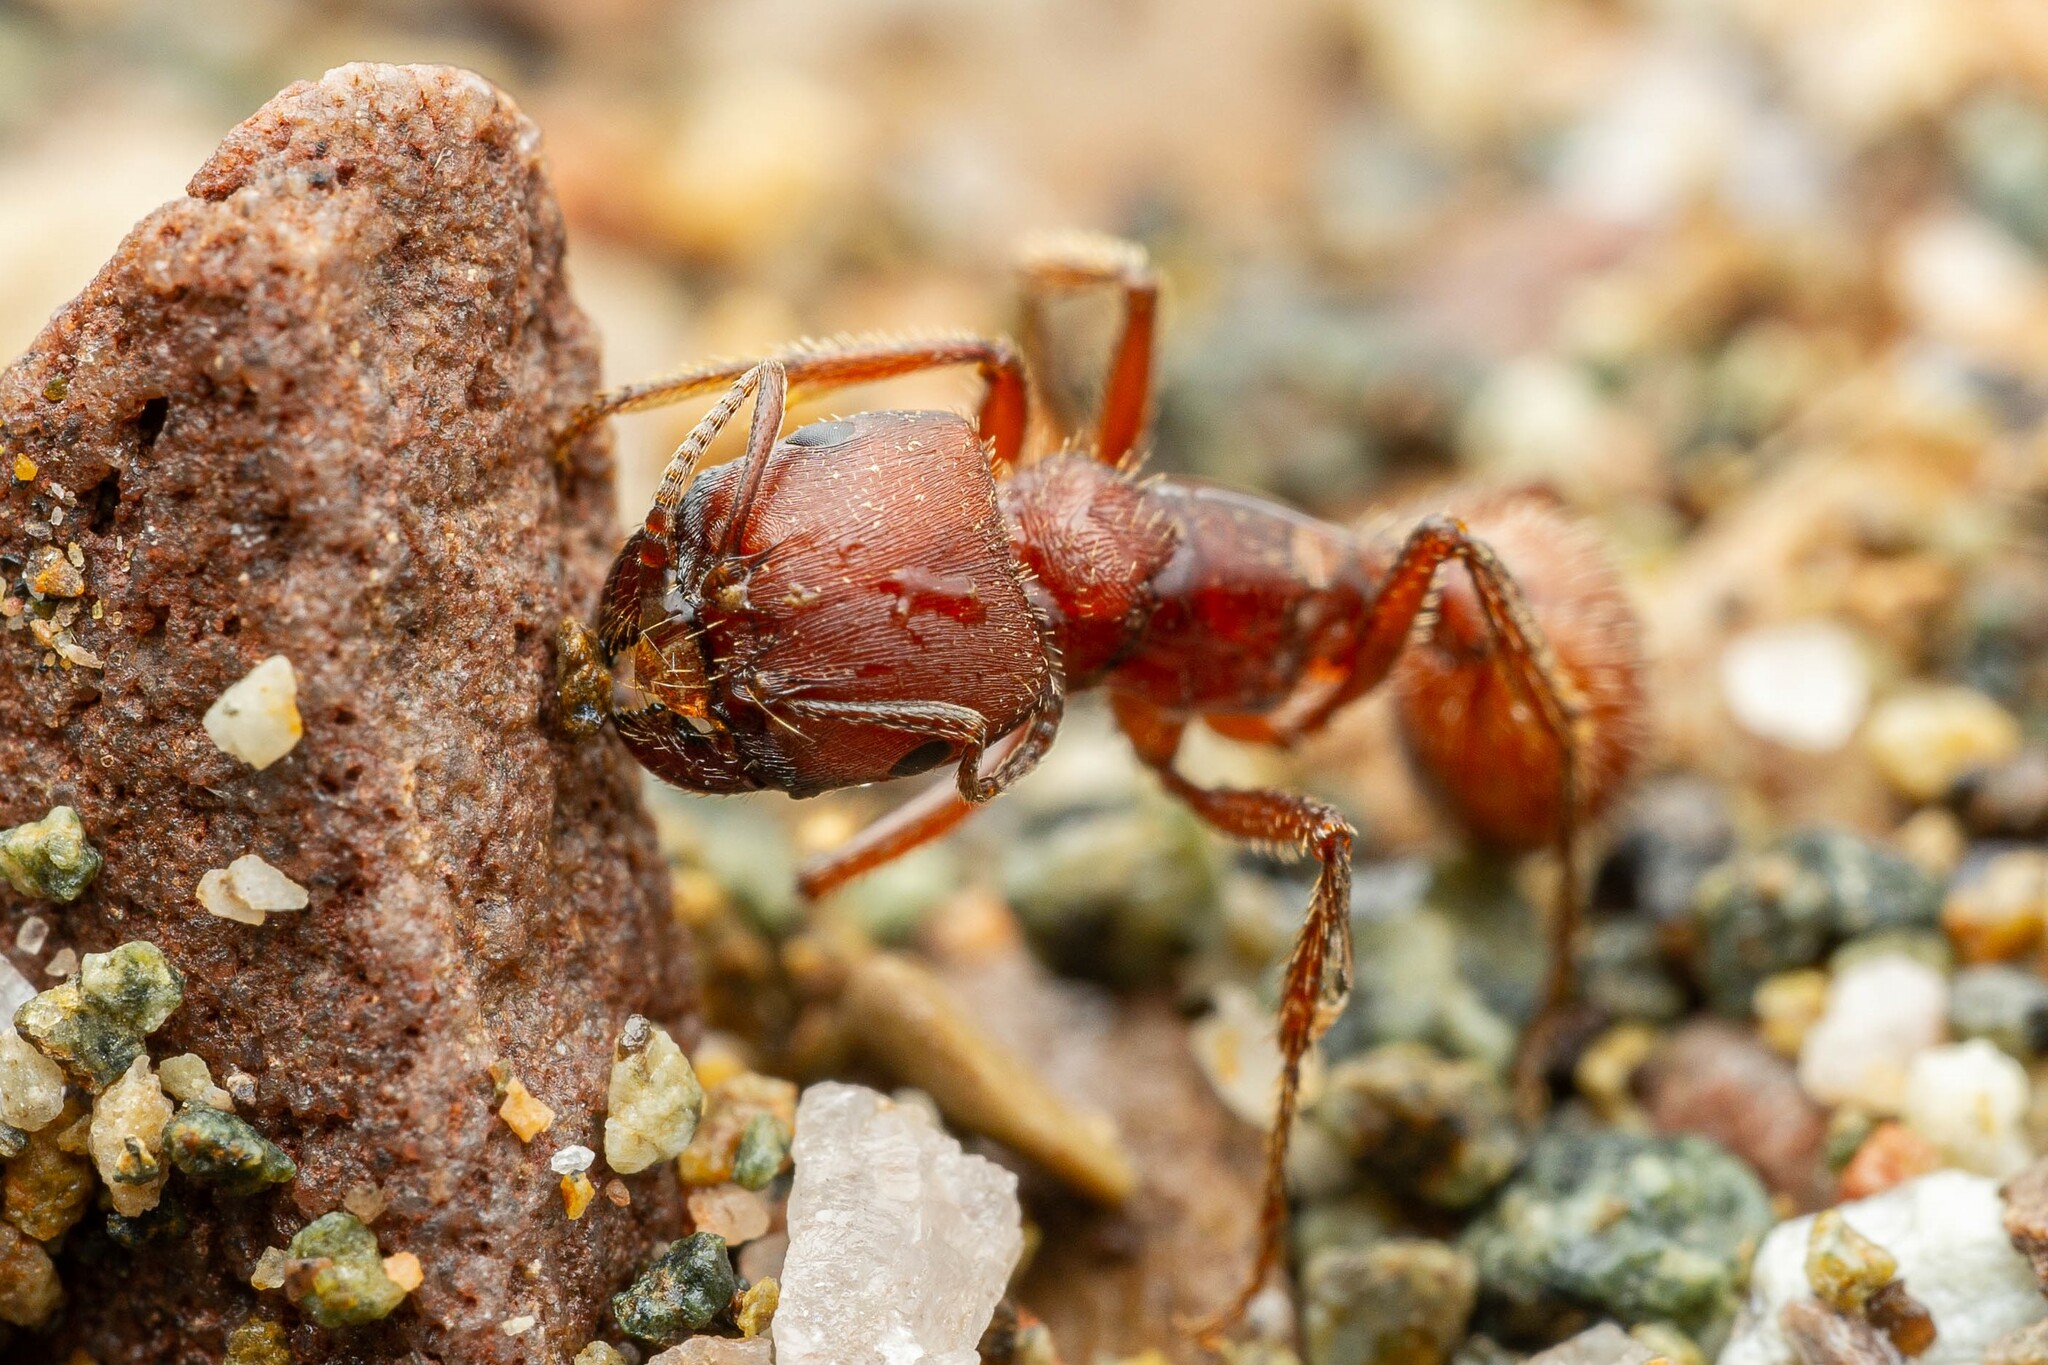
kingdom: Animalia
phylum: Arthropoda
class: Insecta
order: Hymenoptera
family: Formicidae
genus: Pogonomyrmex
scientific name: Pogonomyrmex barbatus
